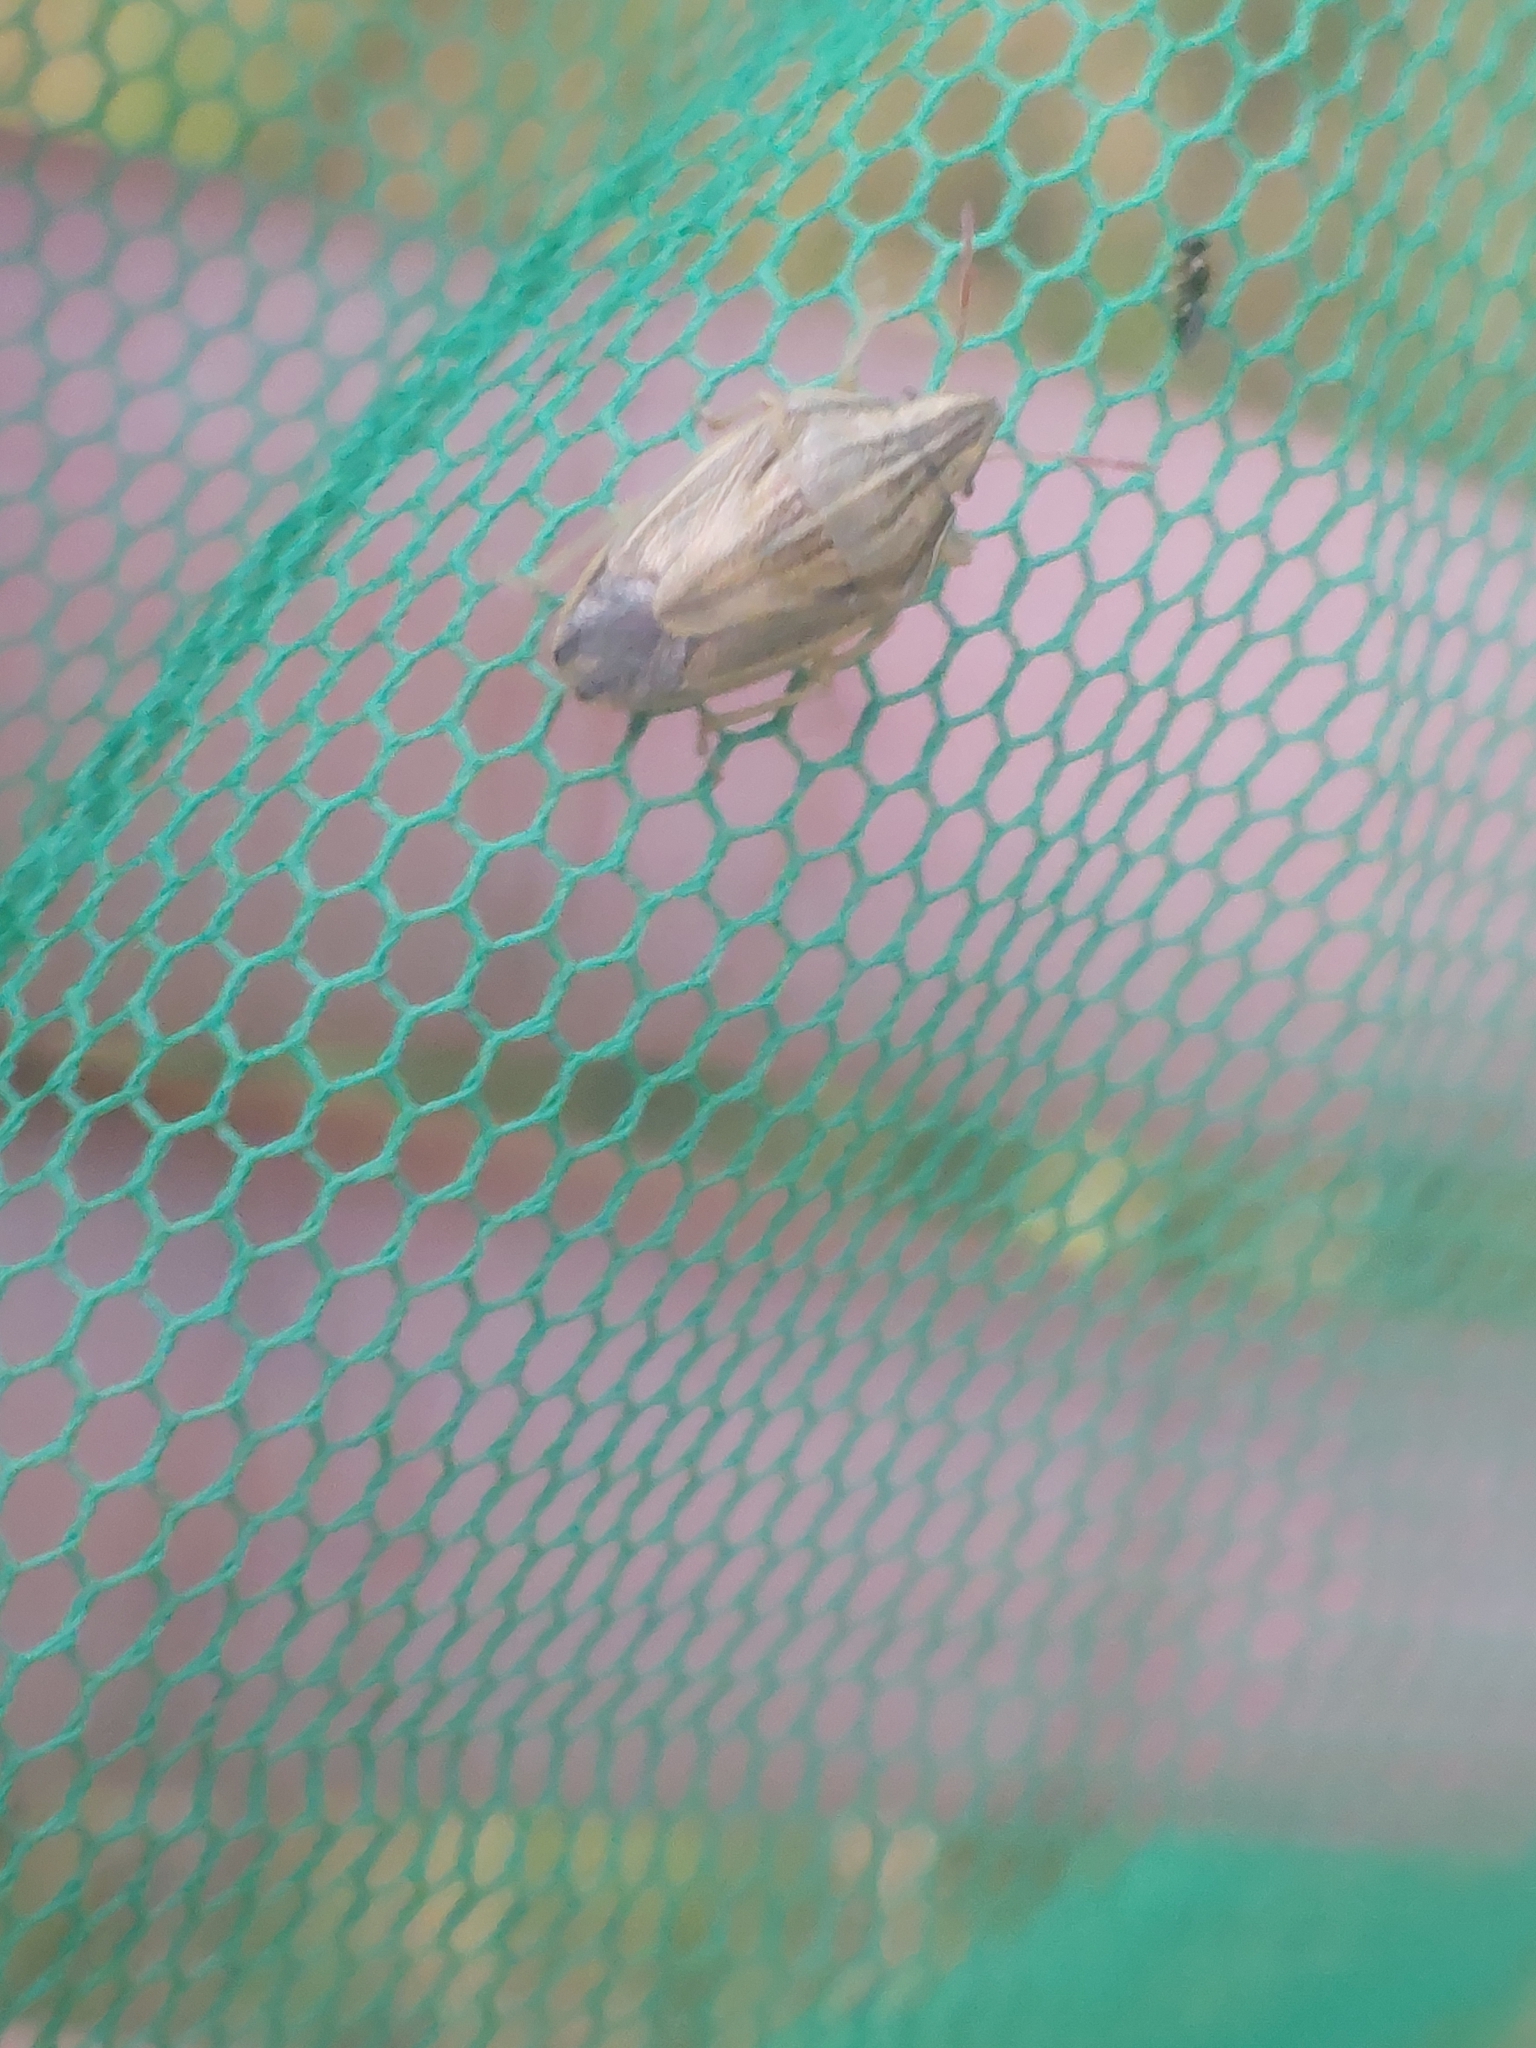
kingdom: Animalia
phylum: Arthropoda
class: Insecta
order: Hemiptera
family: Pentatomidae
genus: Aelia
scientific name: Aelia acuminata
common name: Bishop's mitre
